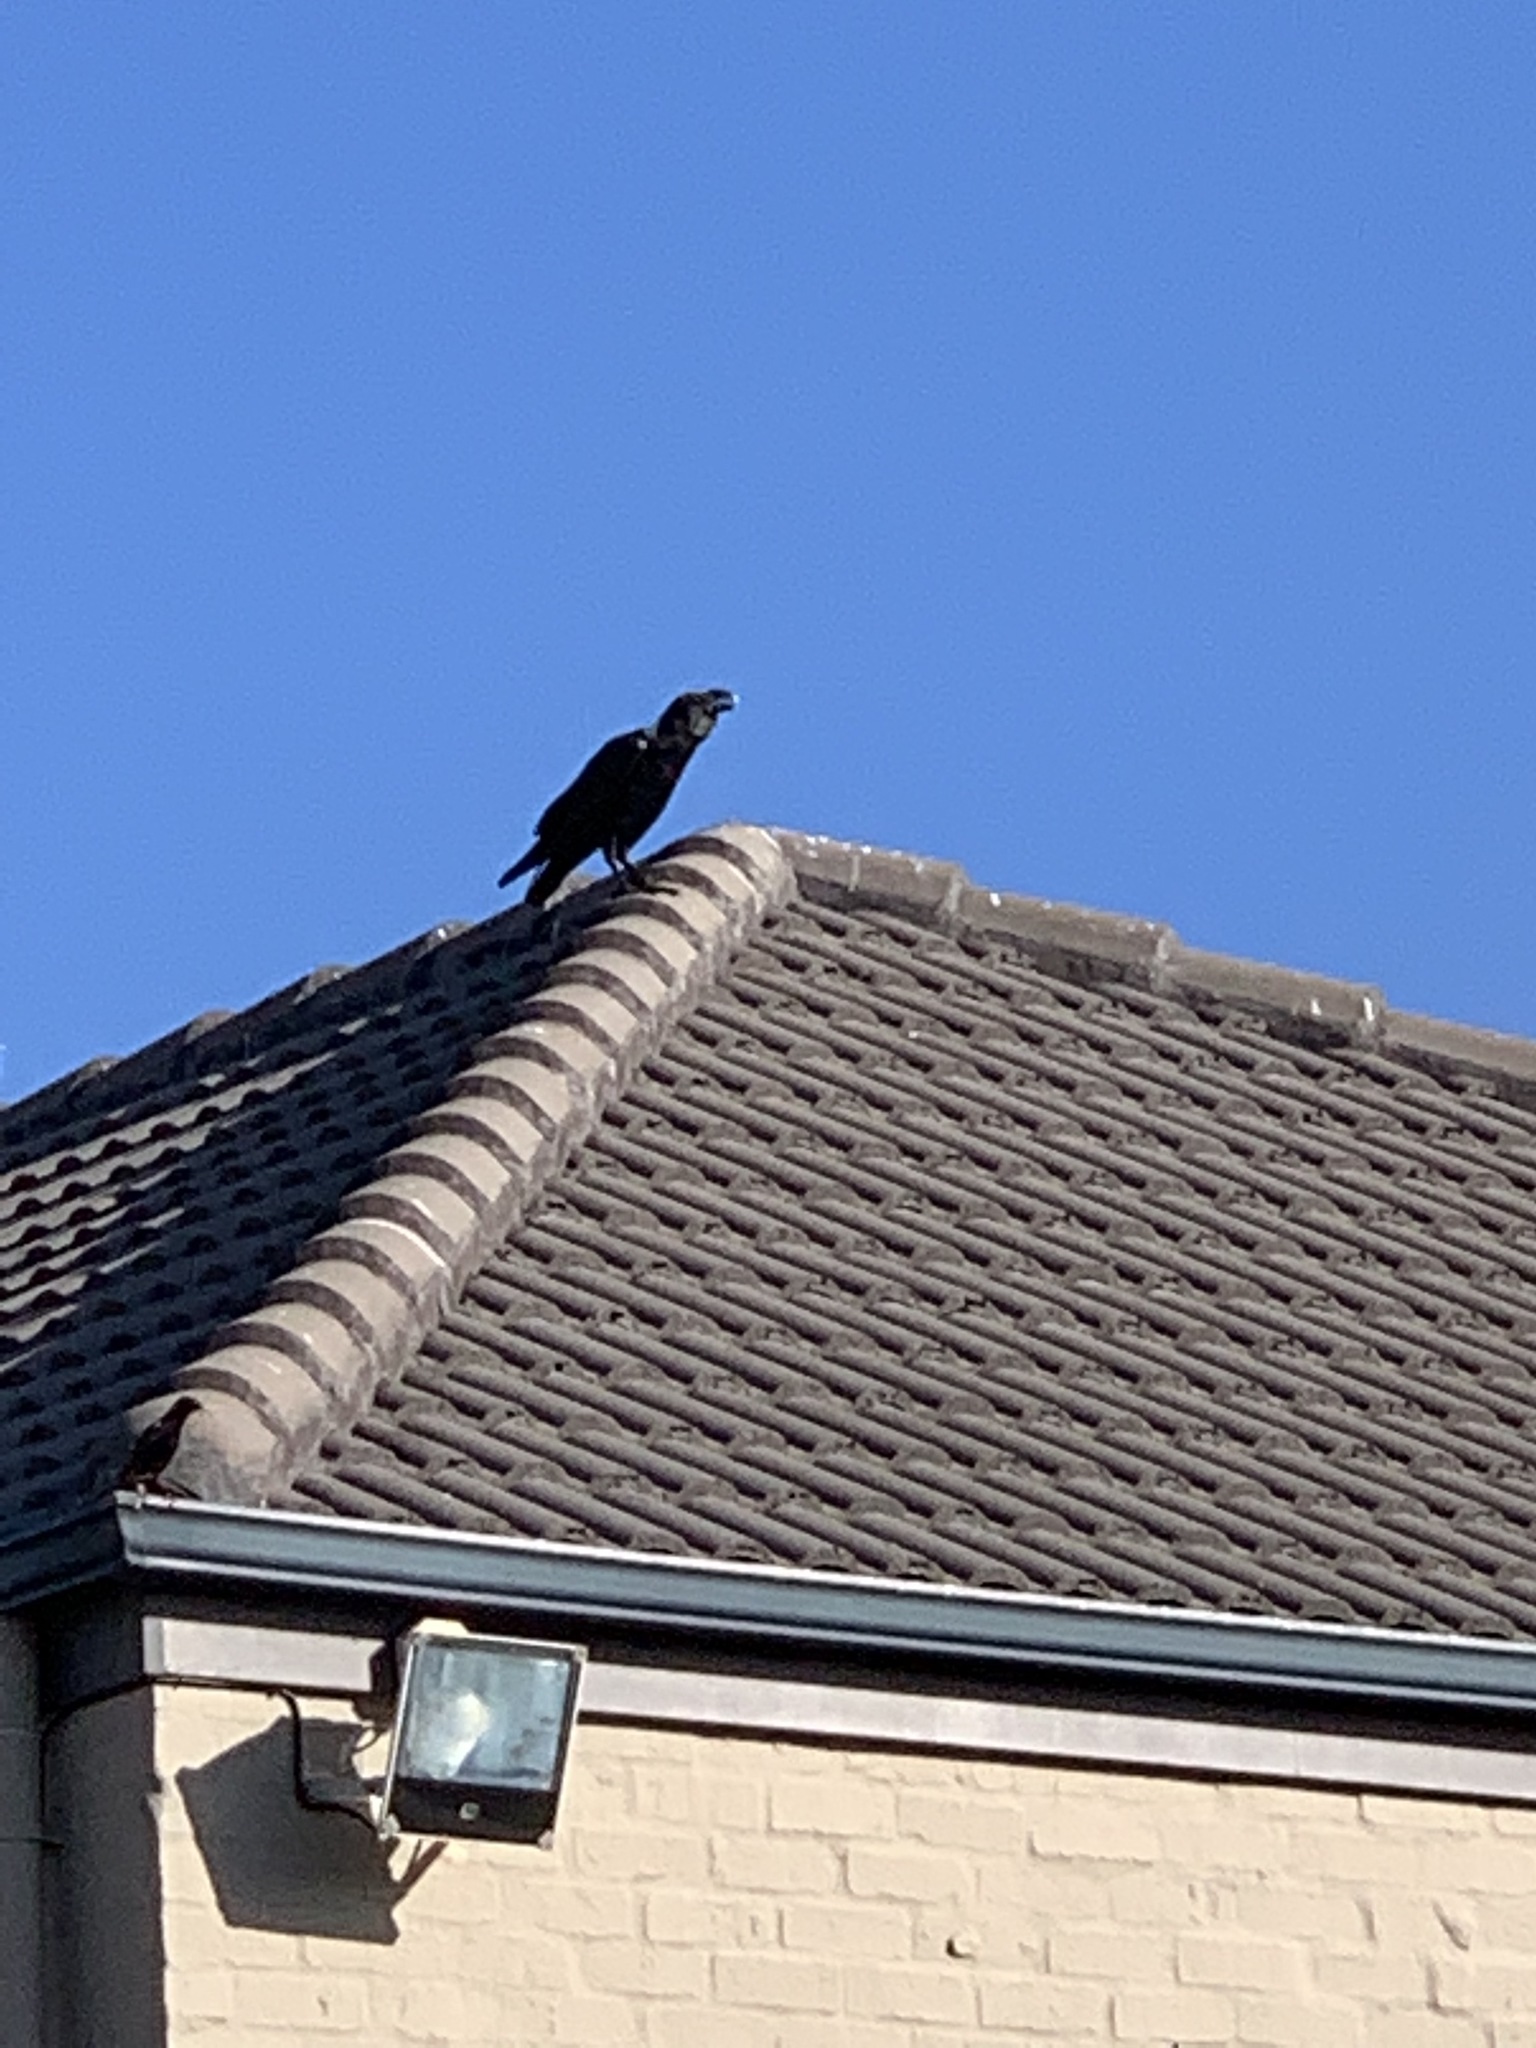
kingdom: Animalia
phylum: Chordata
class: Aves
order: Passeriformes
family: Corvidae
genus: Corvus
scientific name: Corvus albicollis
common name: White-necked raven
